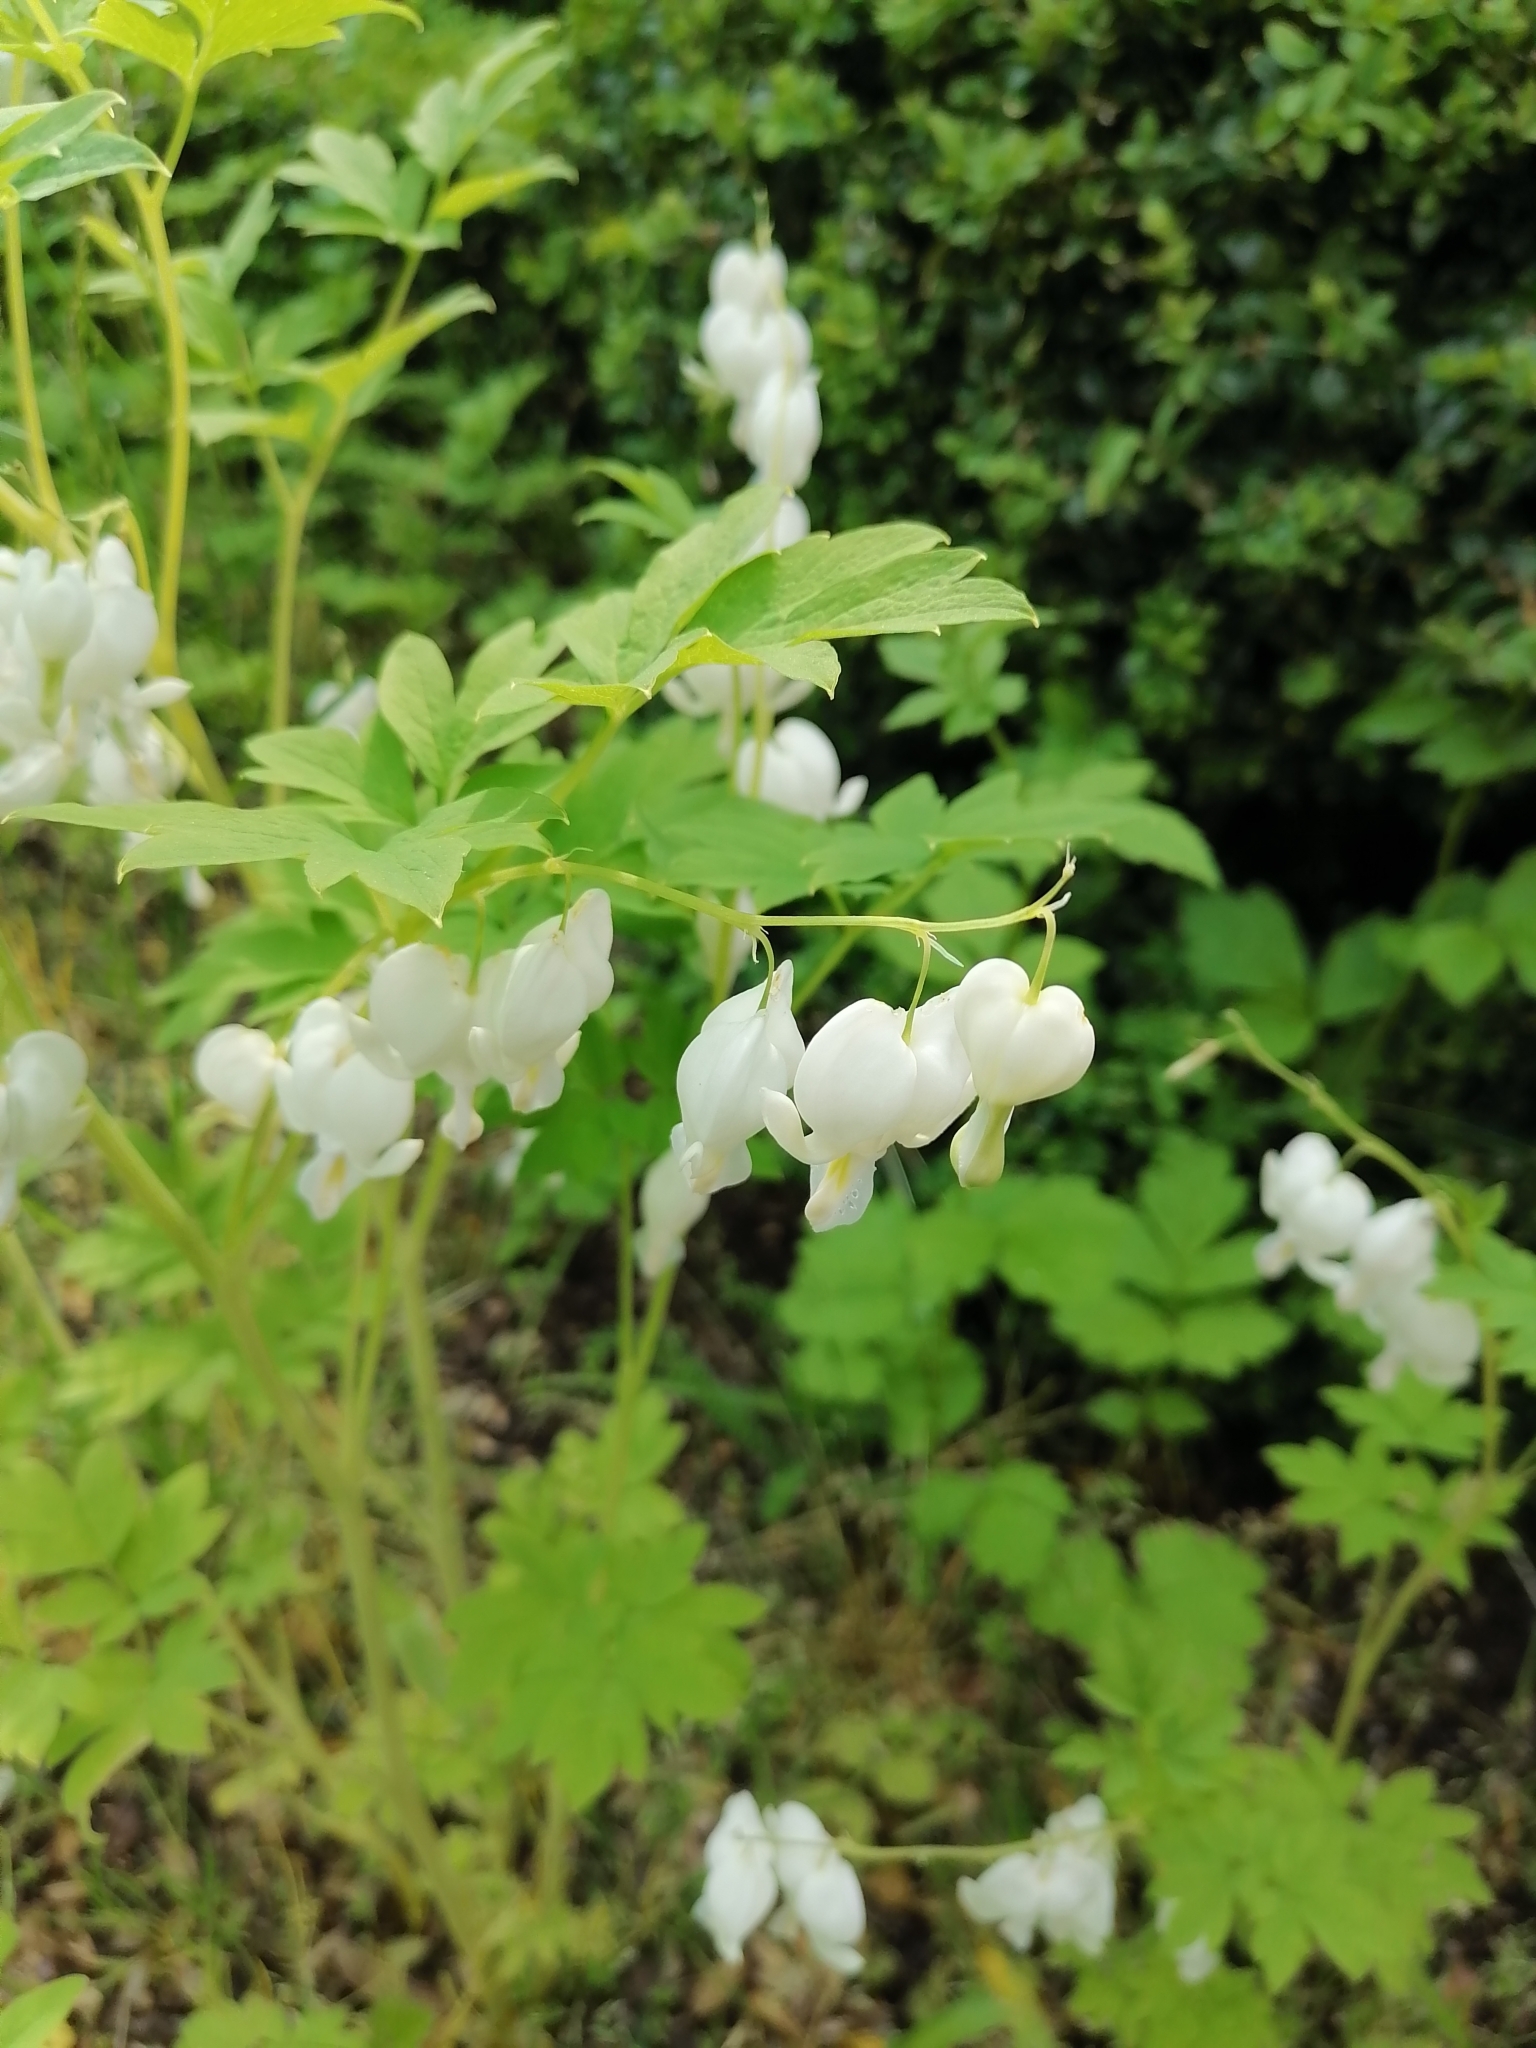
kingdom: Plantae
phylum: Tracheophyta
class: Magnoliopsida
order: Ranunculales
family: Papaveraceae
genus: Lamprocapnos
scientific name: Lamprocapnos spectabilis
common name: Asian bleeding-heart
